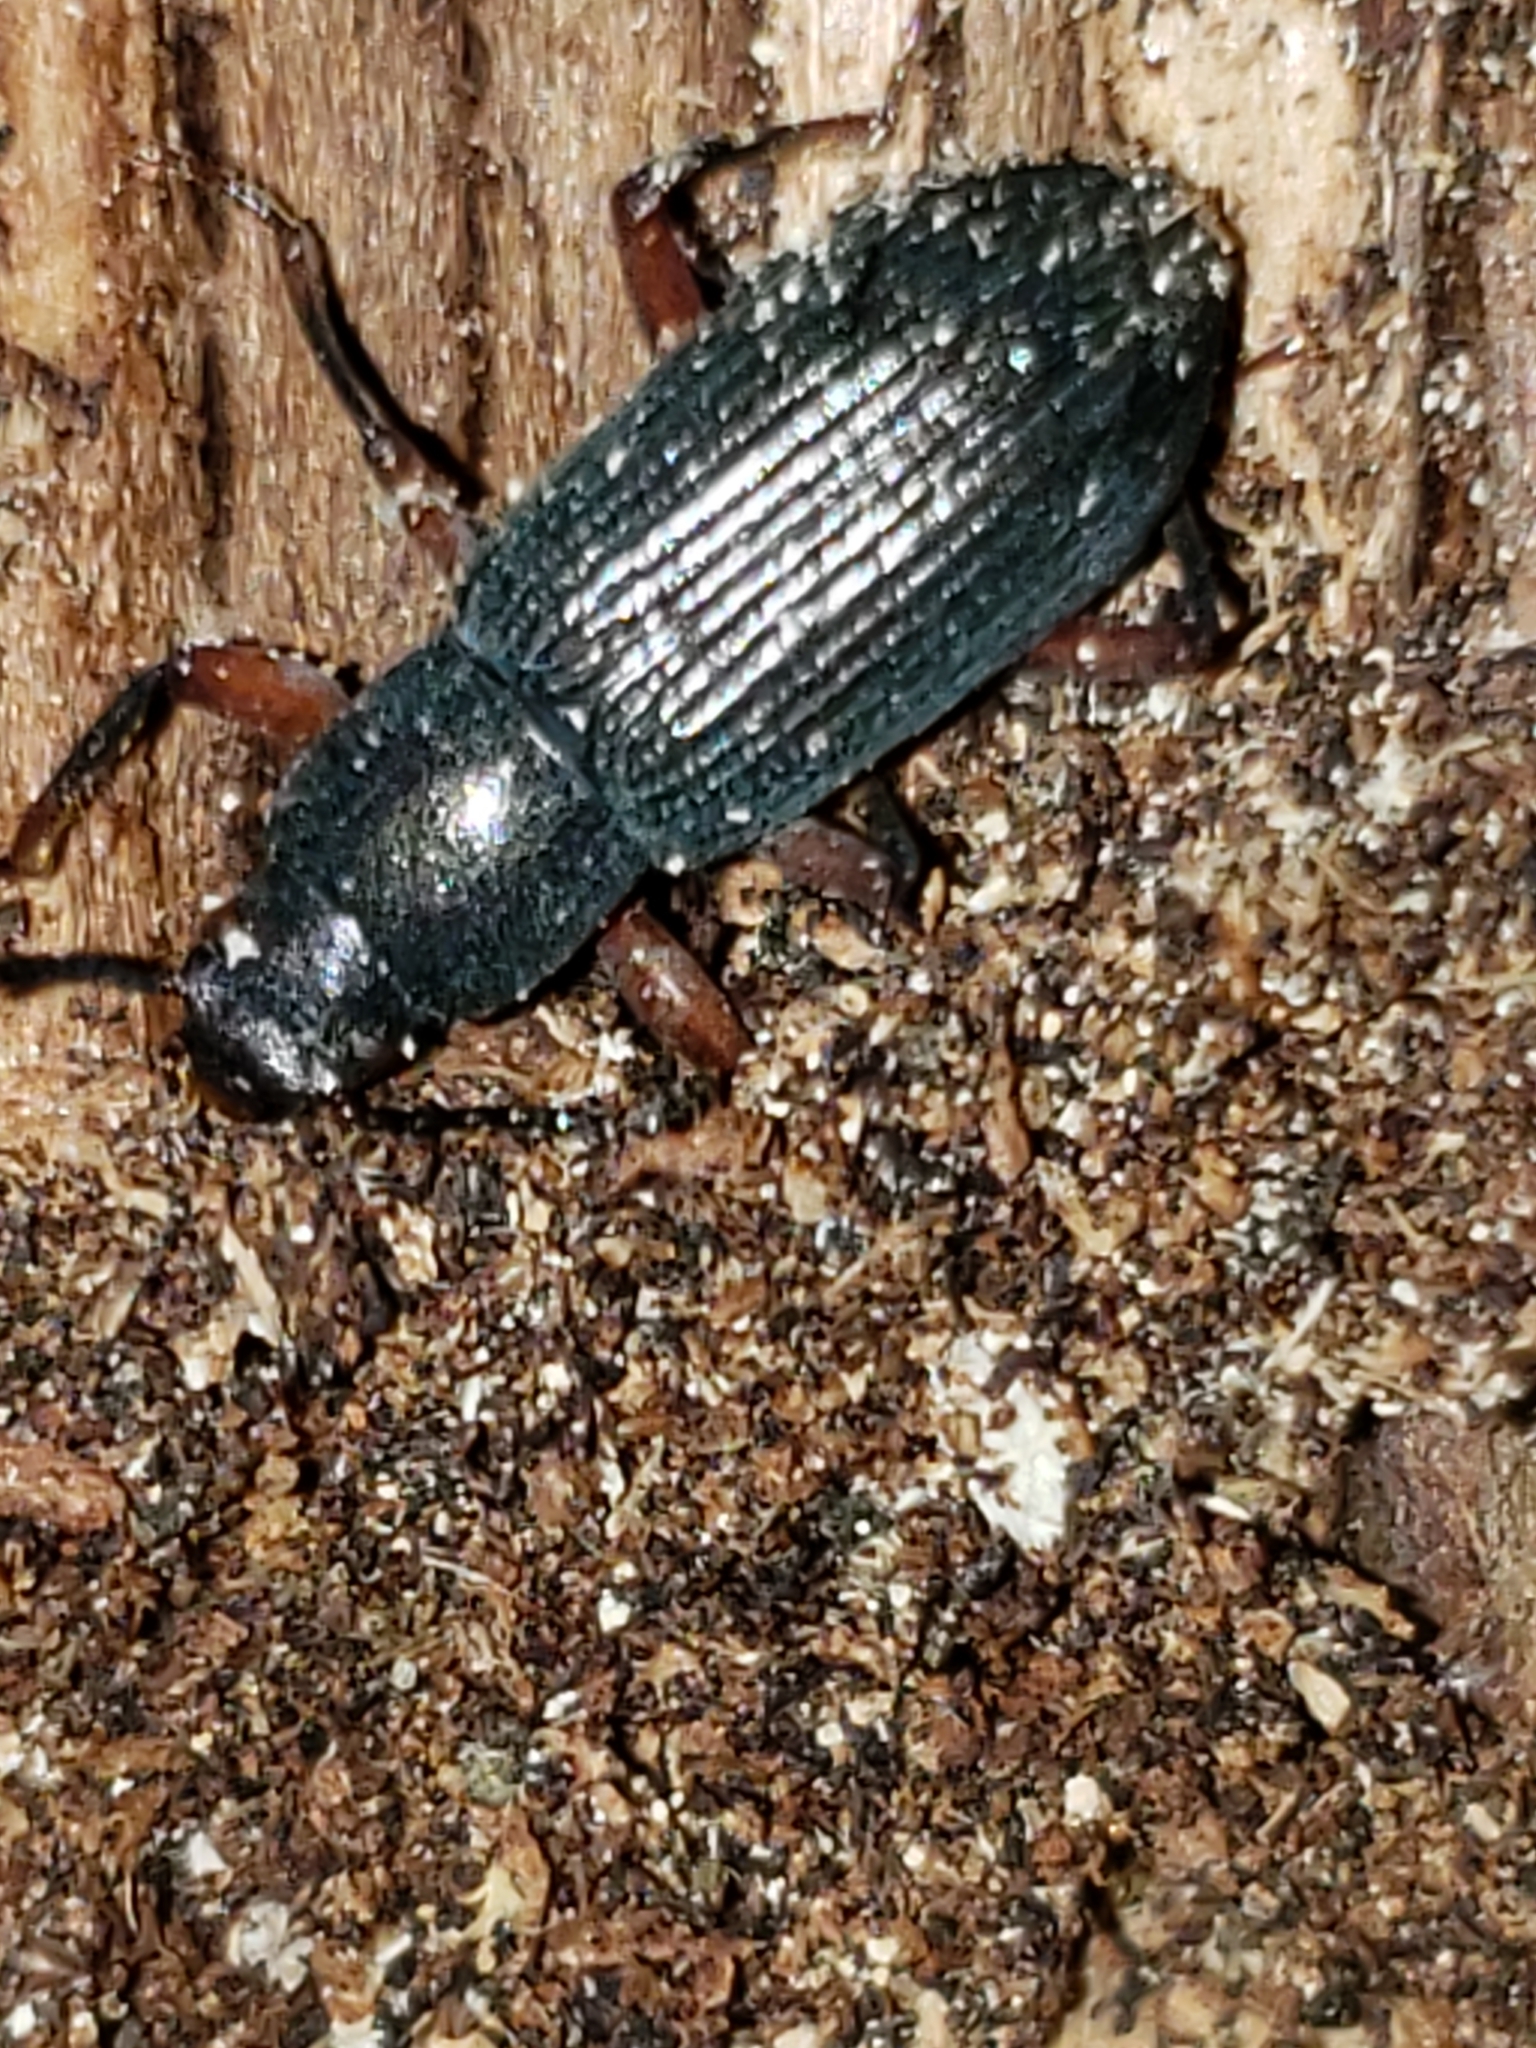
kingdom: Animalia
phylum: Arthropoda
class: Insecta
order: Coleoptera
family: Tenebrionidae
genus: Xylopinus
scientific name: Xylopinus saperdoides
